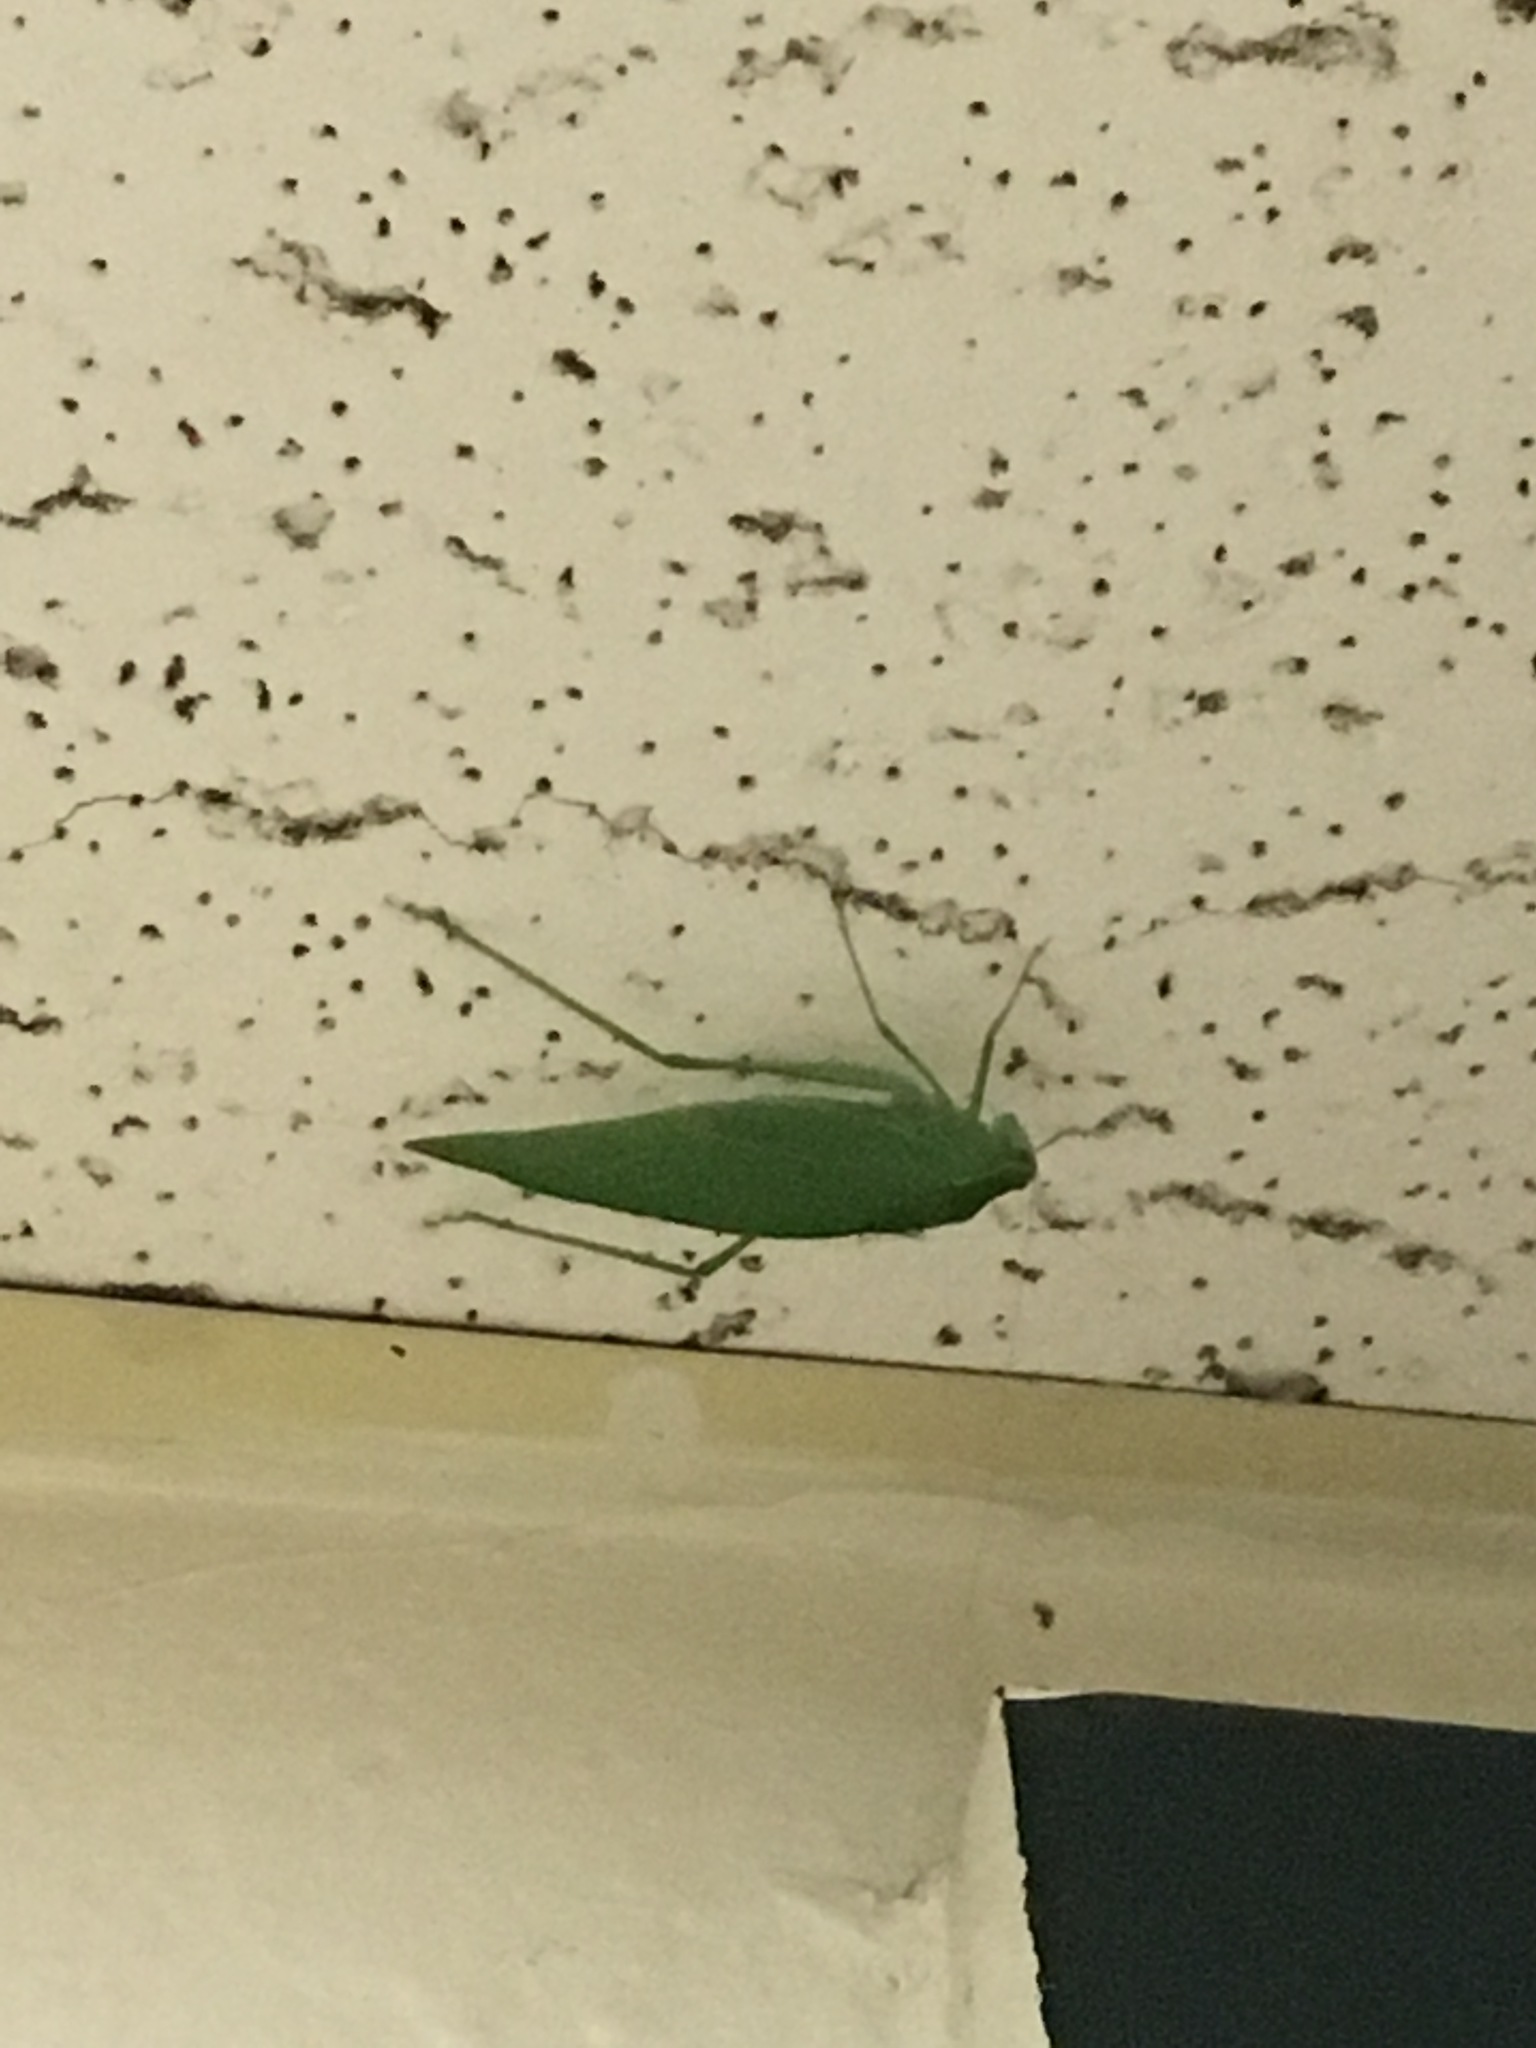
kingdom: Animalia
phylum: Arthropoda
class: Insecta
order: Orthoptera
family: Tettigoniidae
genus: Microcentrum
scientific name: Microcentrum rhombifolium
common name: Broad-winged katydid
